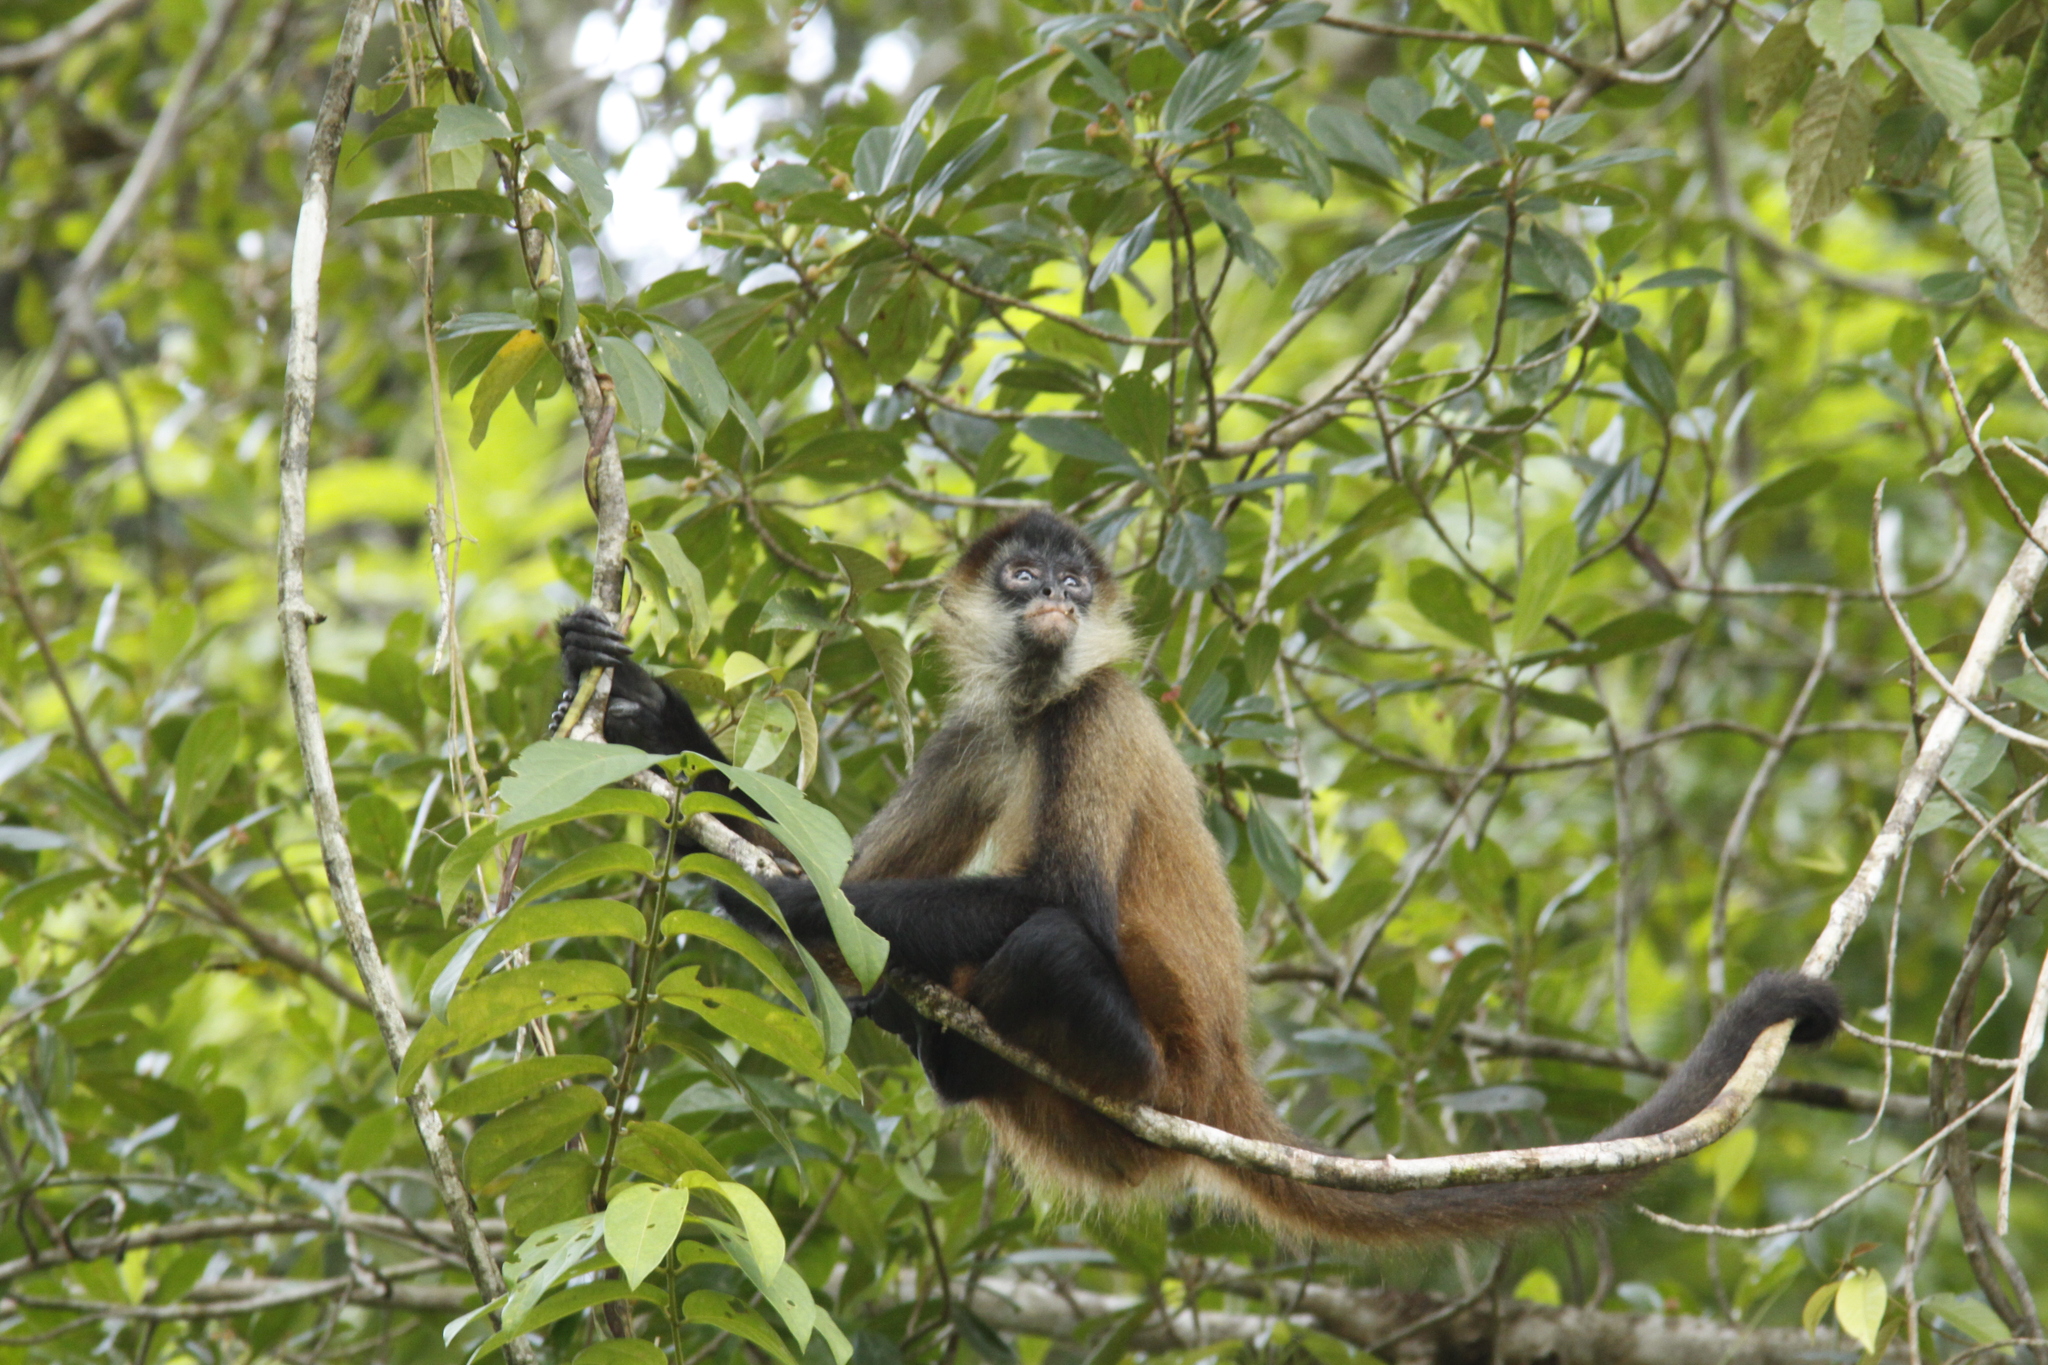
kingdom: Animalia
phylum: Chordata
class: Mammalia
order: Primates
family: Atelidae
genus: Ateles
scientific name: Ateles geoffroyi
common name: Black-handed spider monkey
